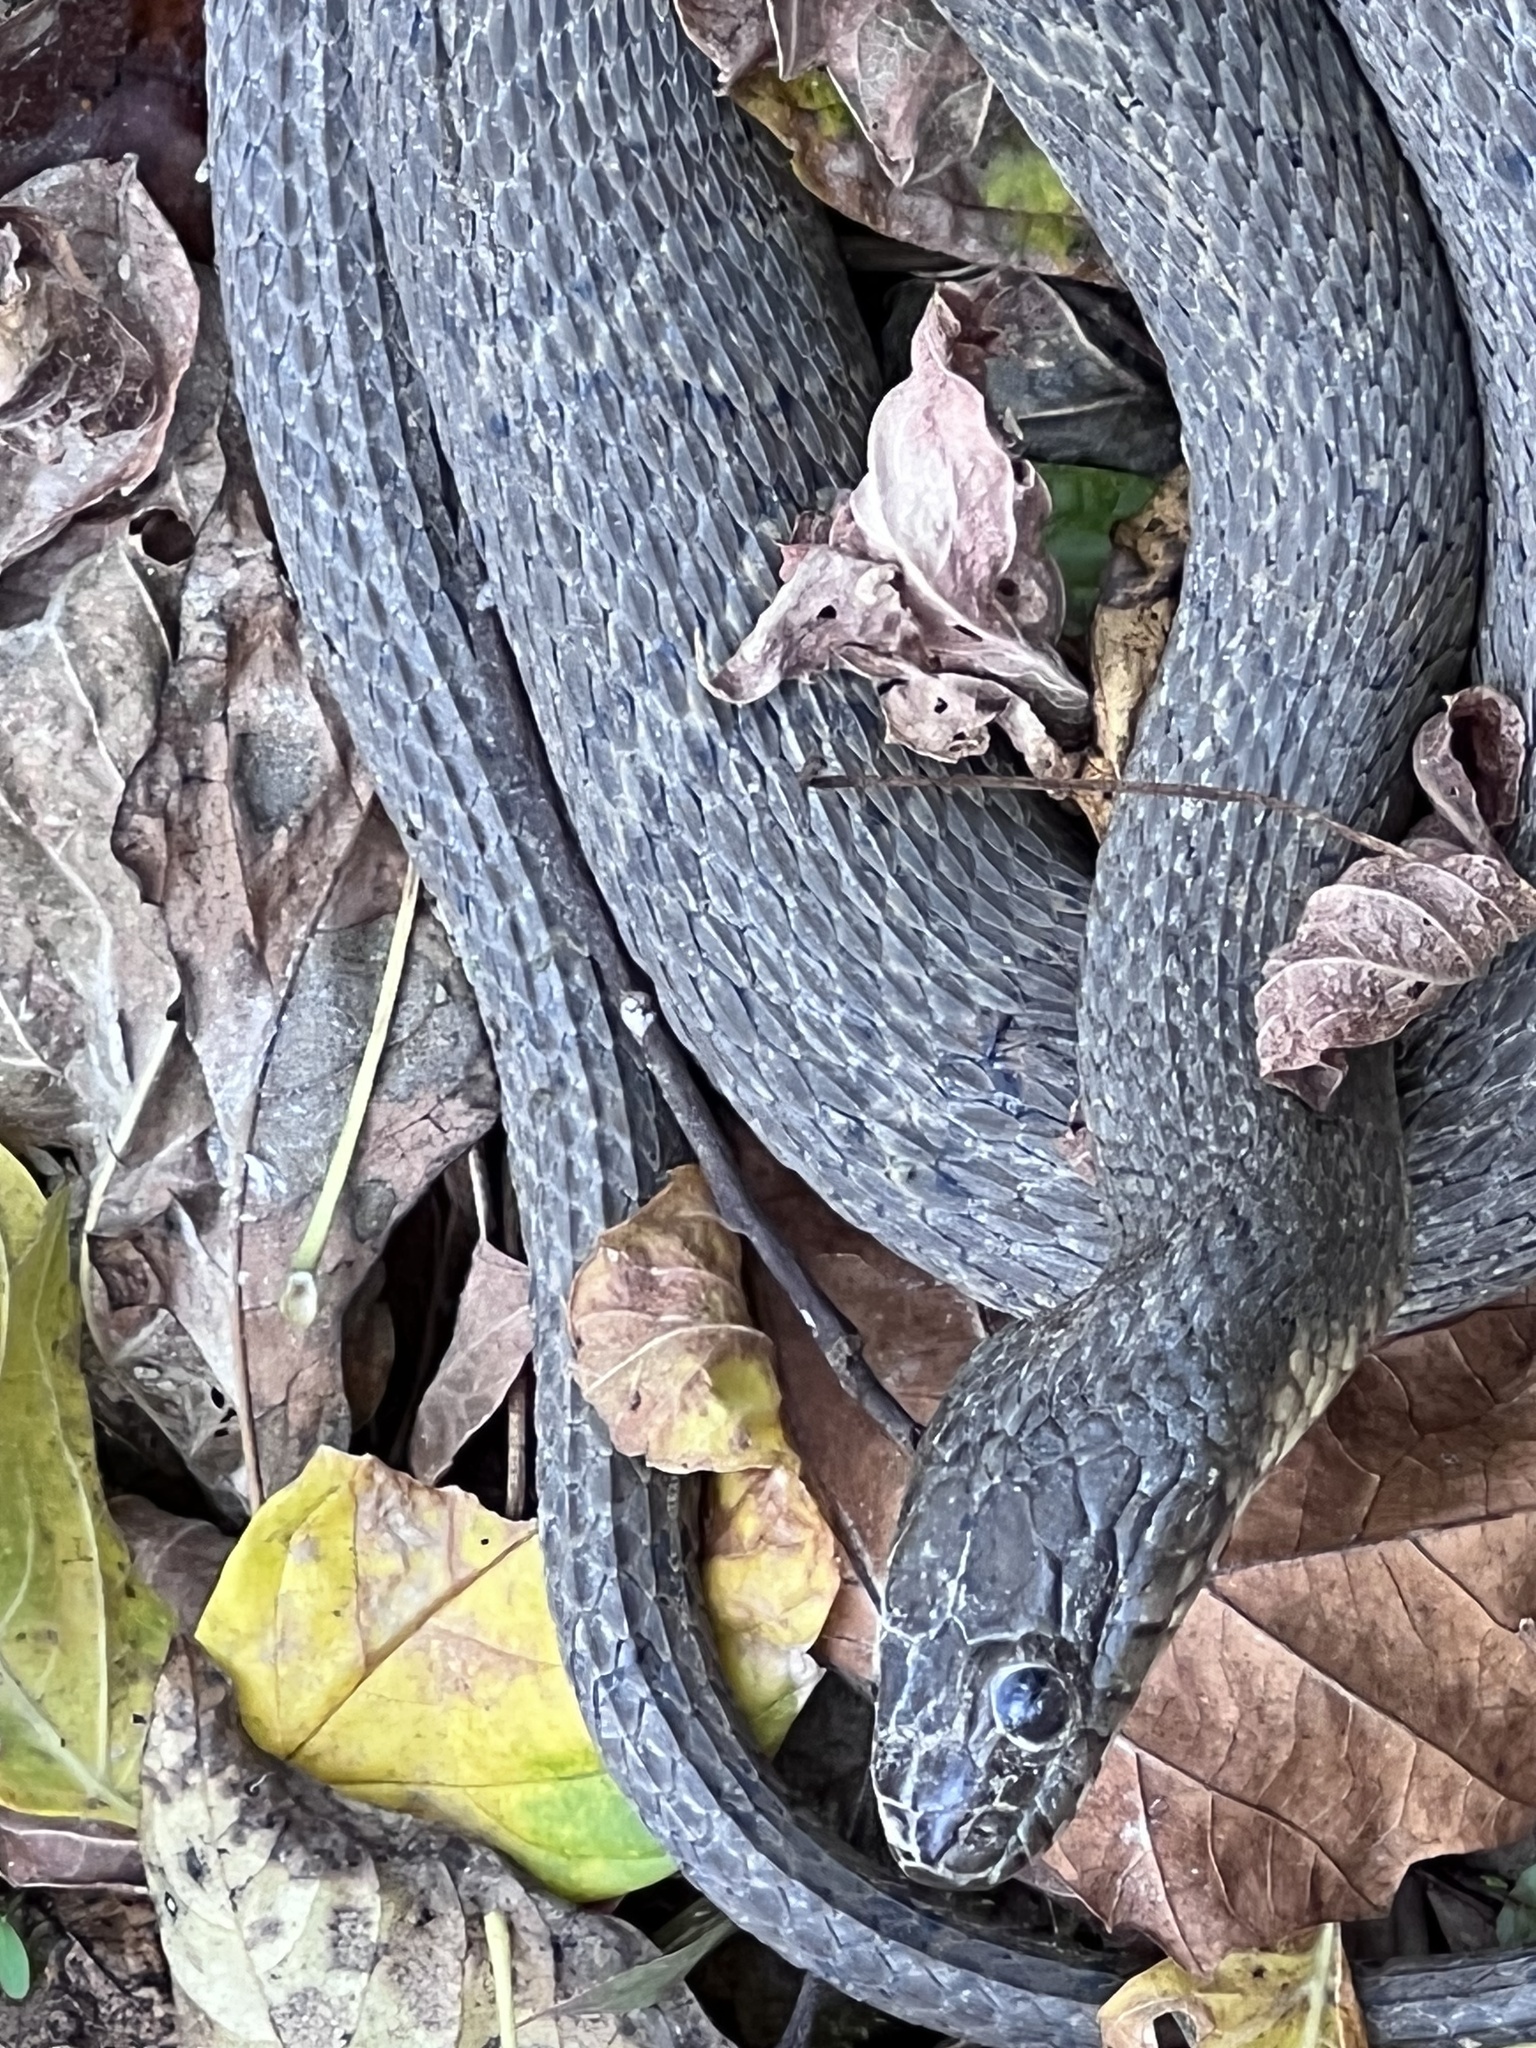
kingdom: Animalia
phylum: Chordata
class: Squamata
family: Colubridae
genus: Nerodia
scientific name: Nerodia sipedon
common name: Northern water snake
